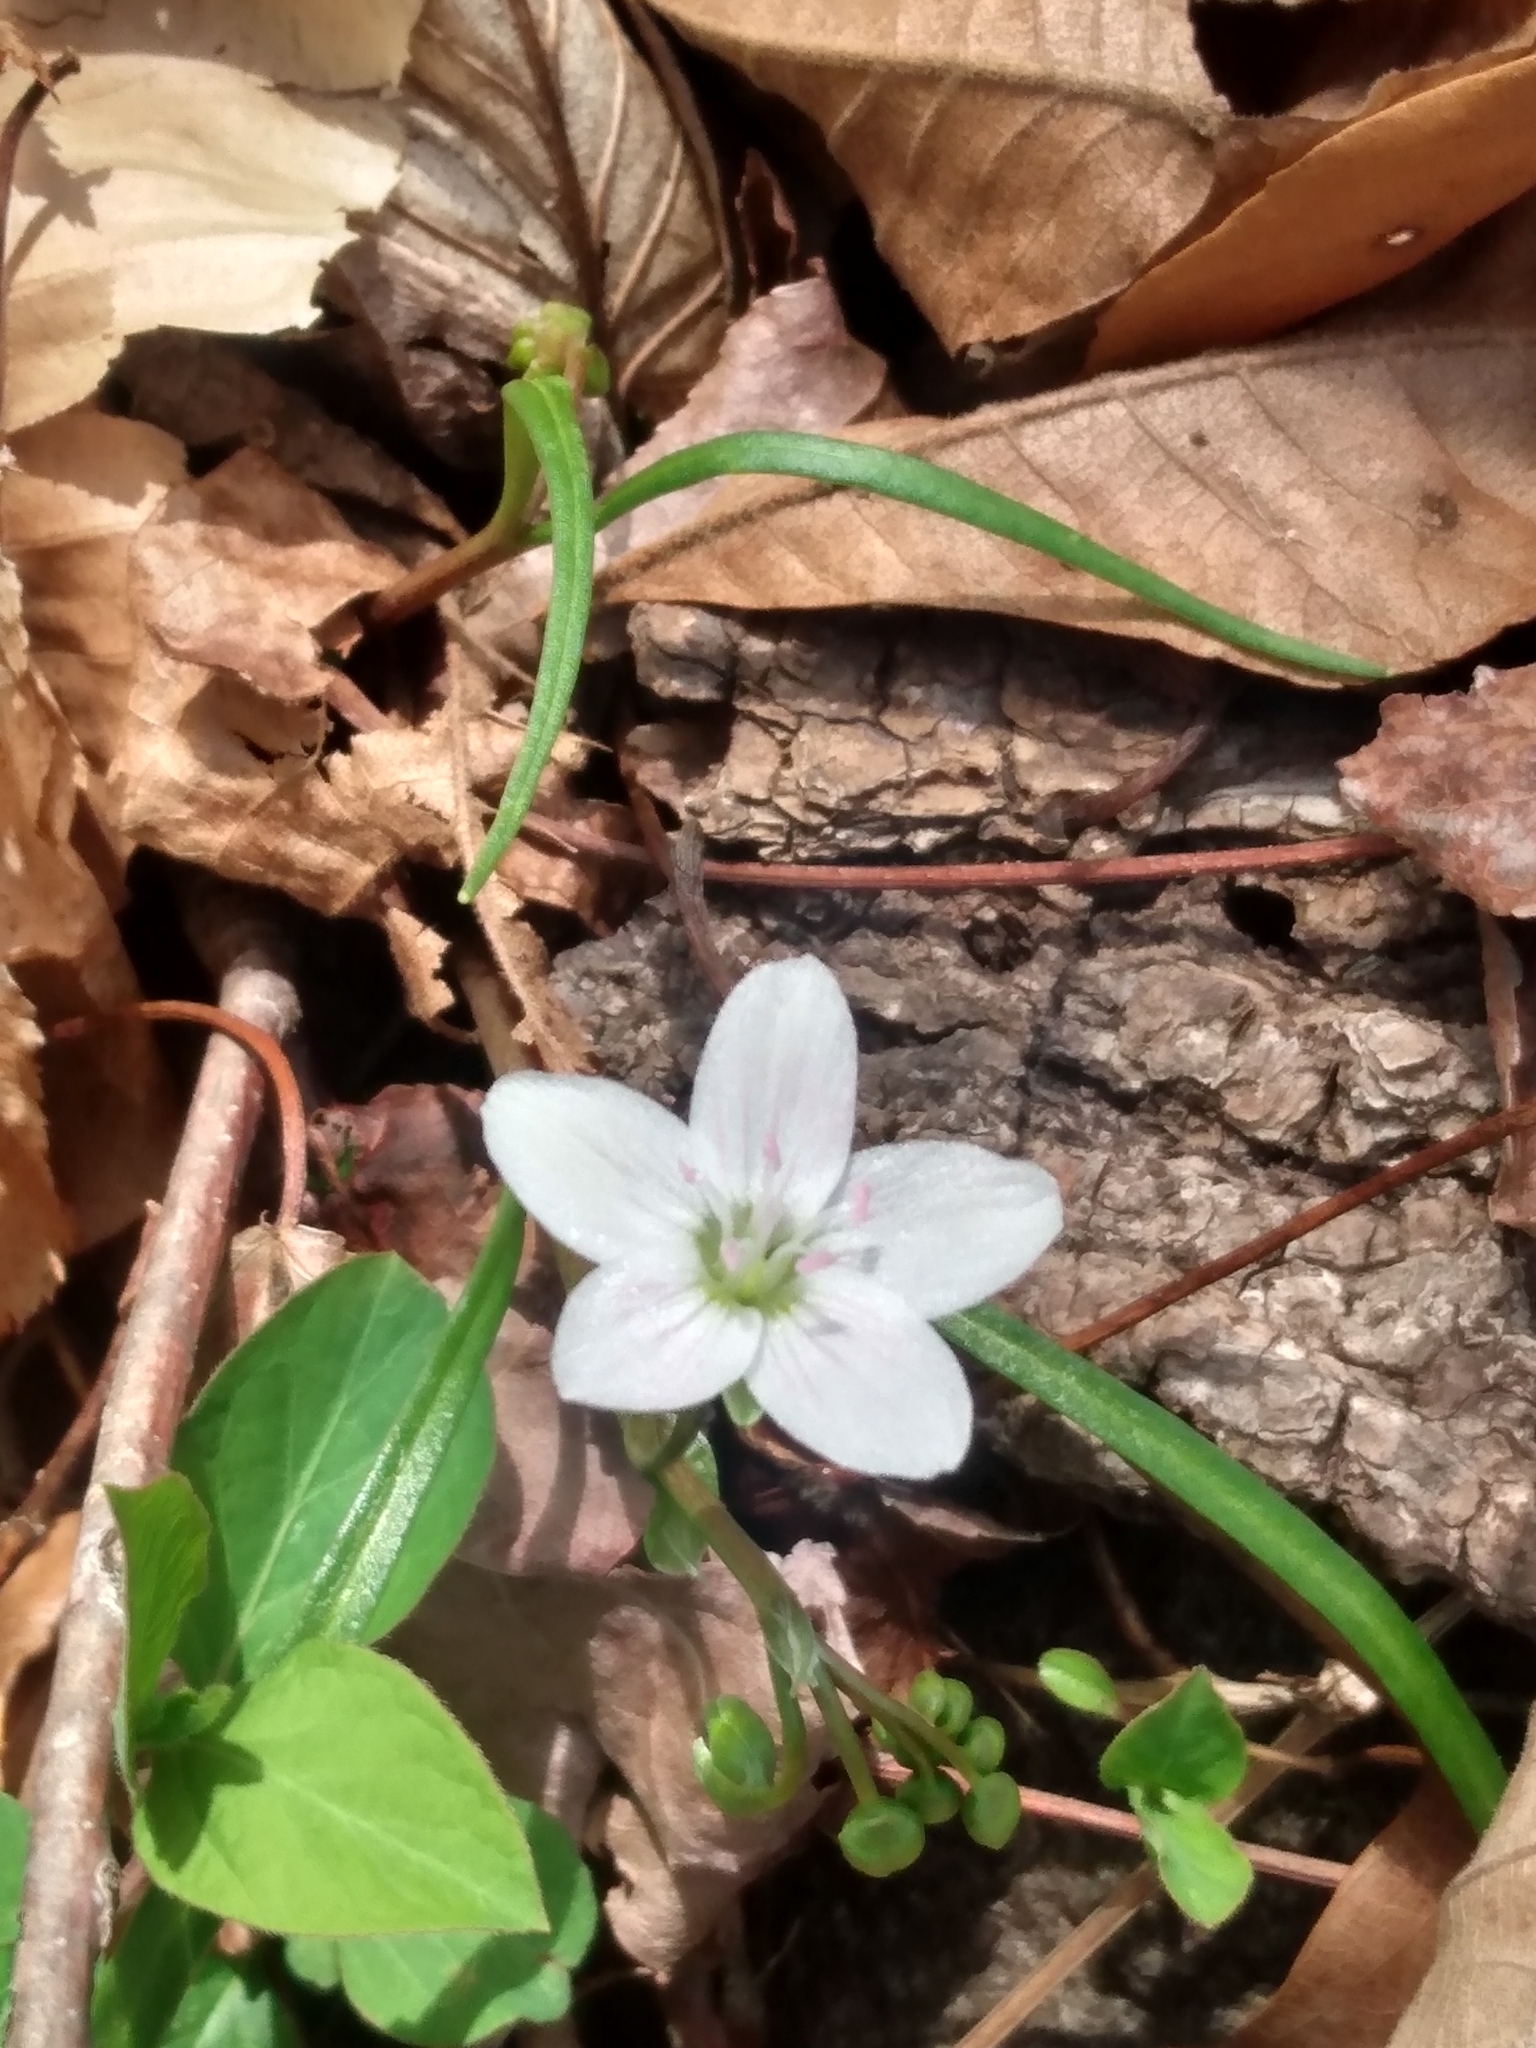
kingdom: Plantae
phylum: Tracheophyta
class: Magnoliopsida
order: Caryophyllales
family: Montiaceae
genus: Claytonia
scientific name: Claytonia virginica
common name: Virginia springbeauty
